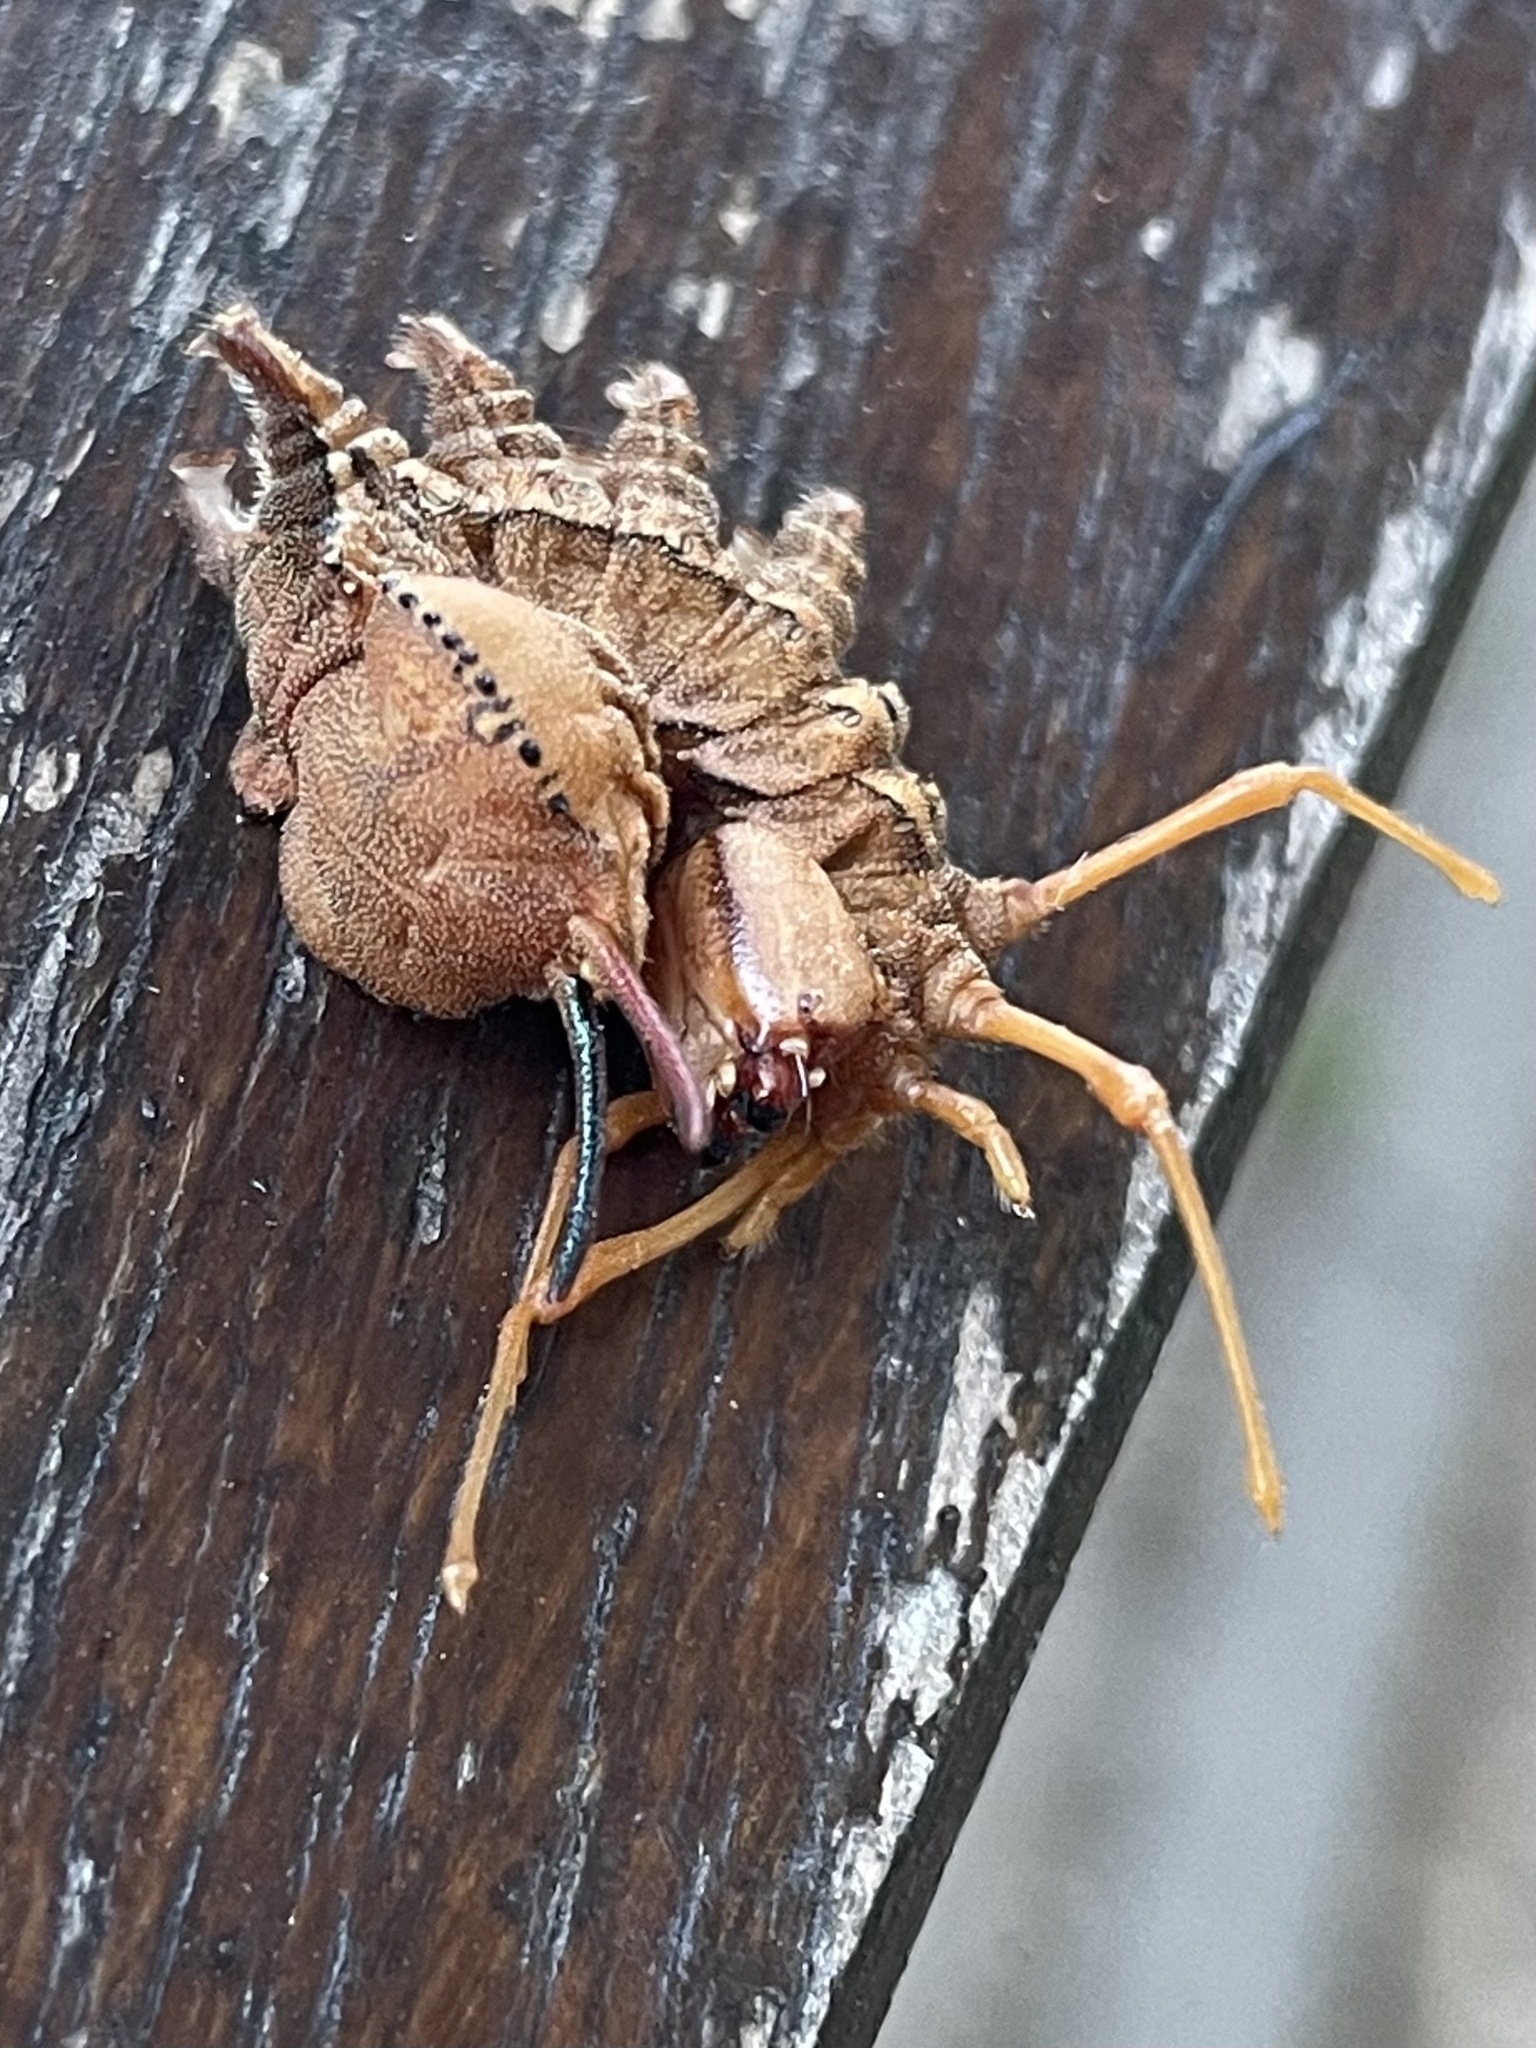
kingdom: Animalia
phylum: Arthropoda
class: Insecta
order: Lepidoptera
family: Notodontidae
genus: Stauropus
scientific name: Stauropus fagi
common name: Lobster moth
